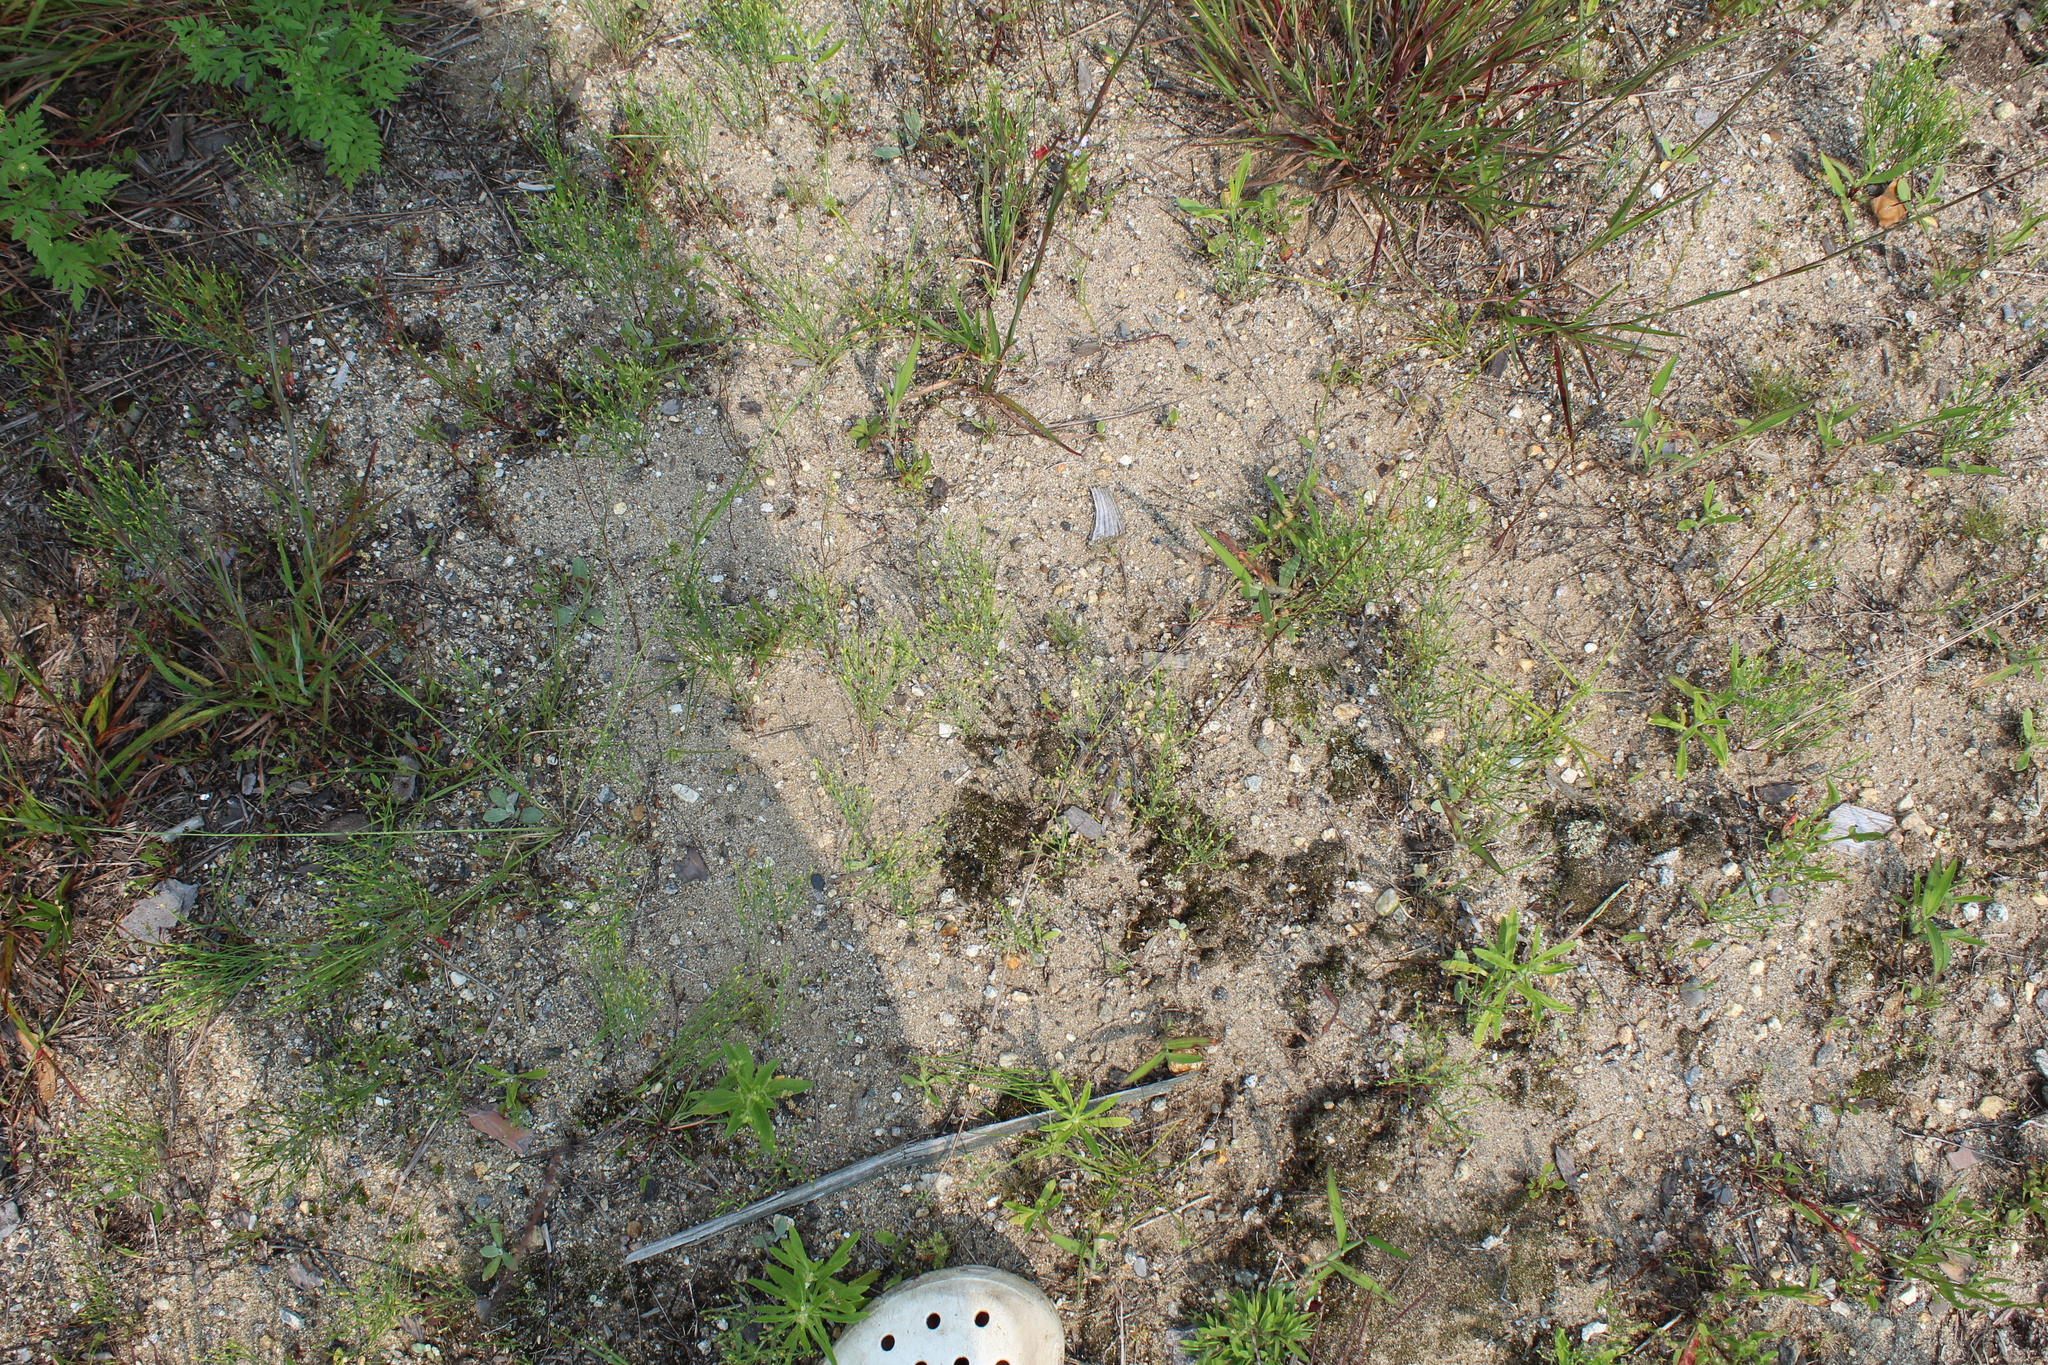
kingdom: Plantae
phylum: Tracheophyta
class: Magnoliopsida
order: Malpighiales
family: Hypericaceae
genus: Hypericum
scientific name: Hypericum gentianoides
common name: Gentian-leaved st. john's-wort
